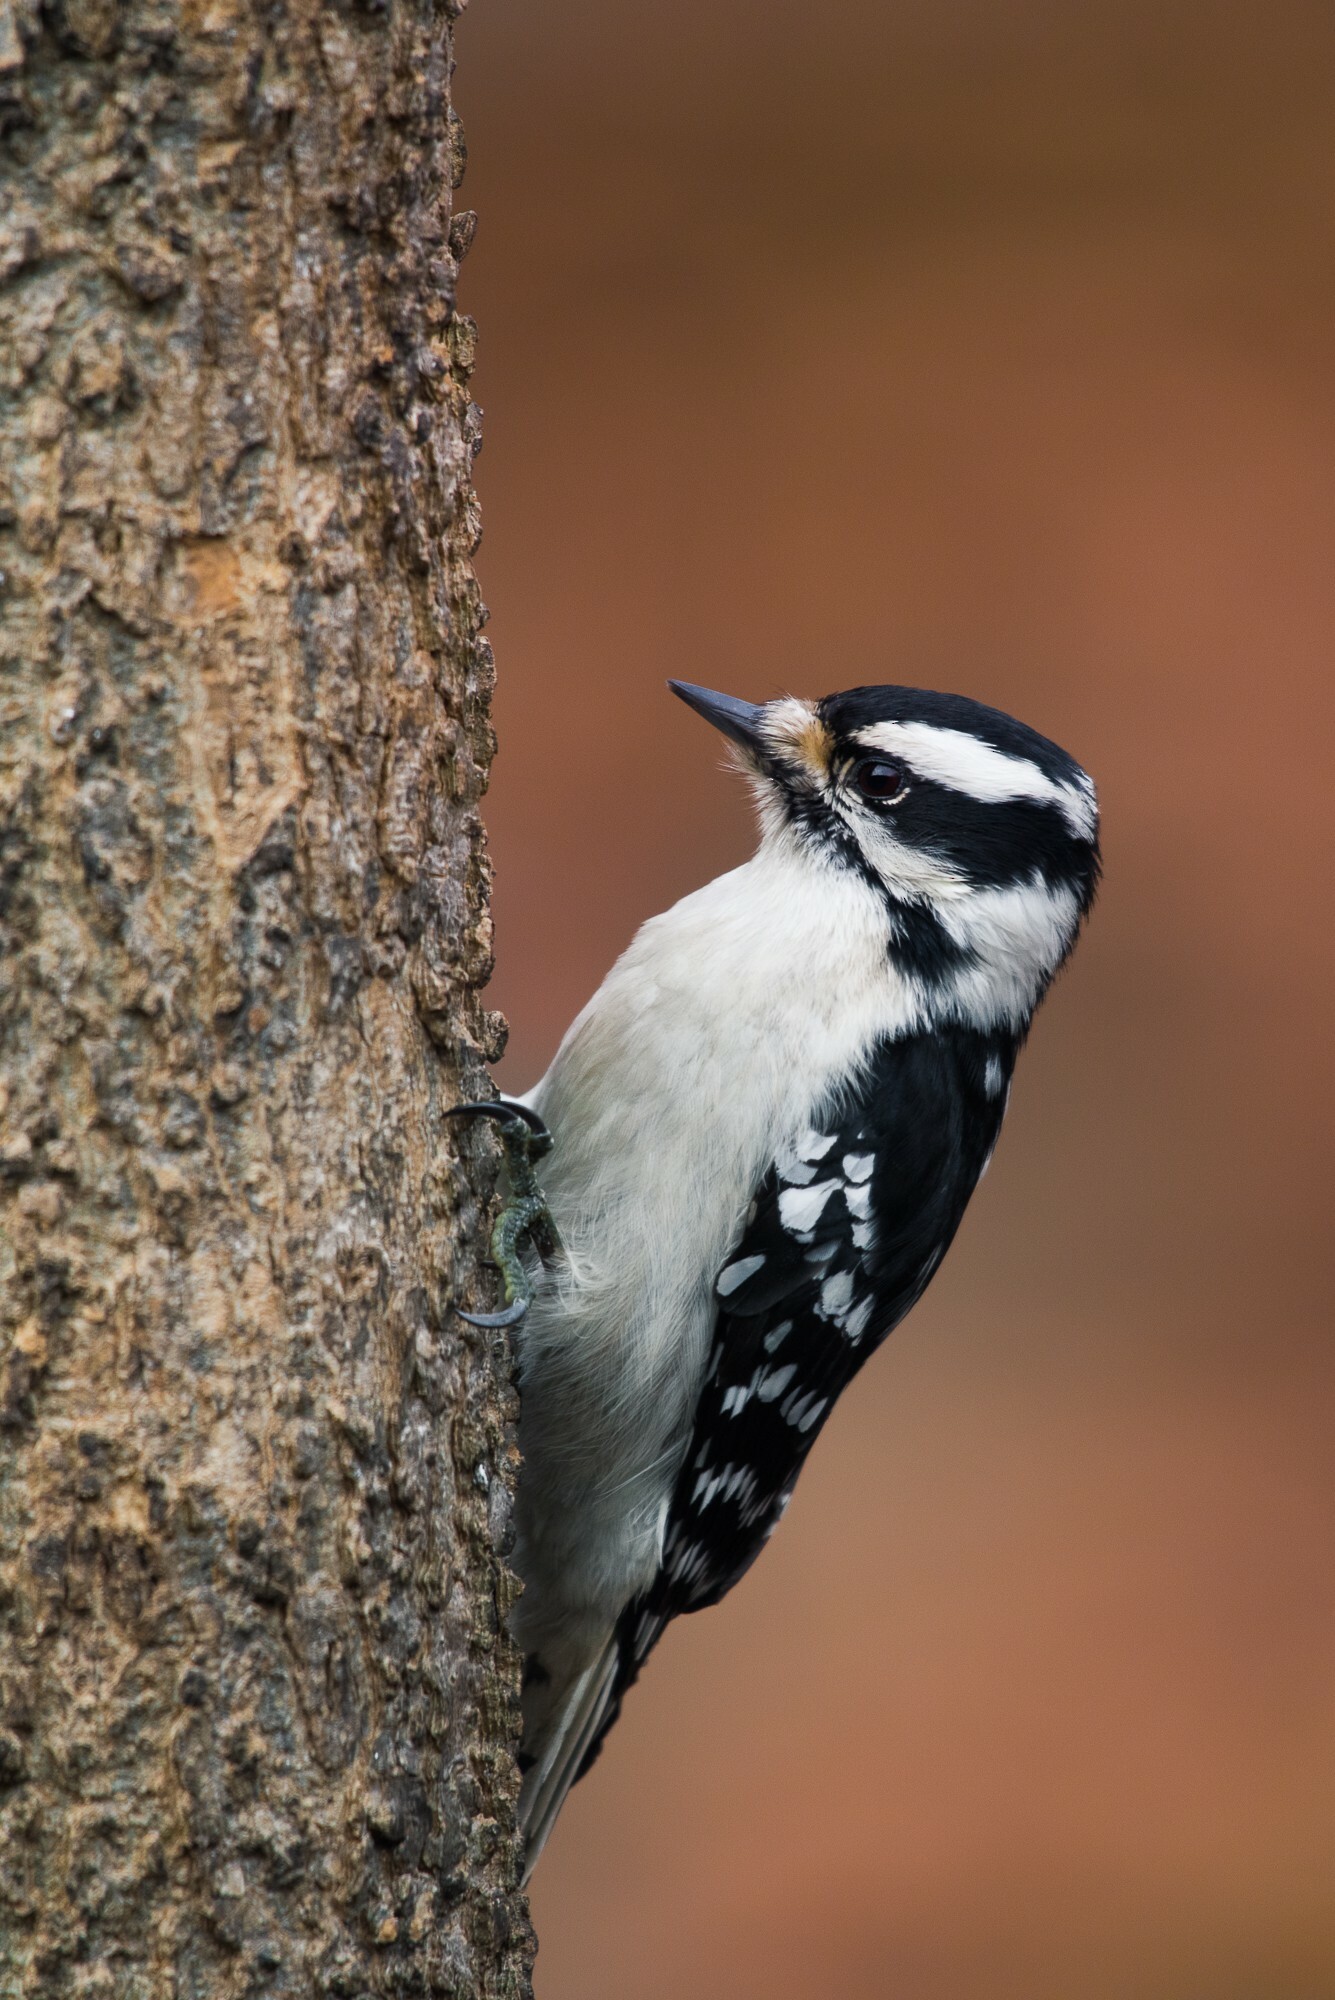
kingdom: Animalia
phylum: Chordata
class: Aves
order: Piciformes
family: Picidae
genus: Dryobates
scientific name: Dryobates pubescens
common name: Downy woodpecker
